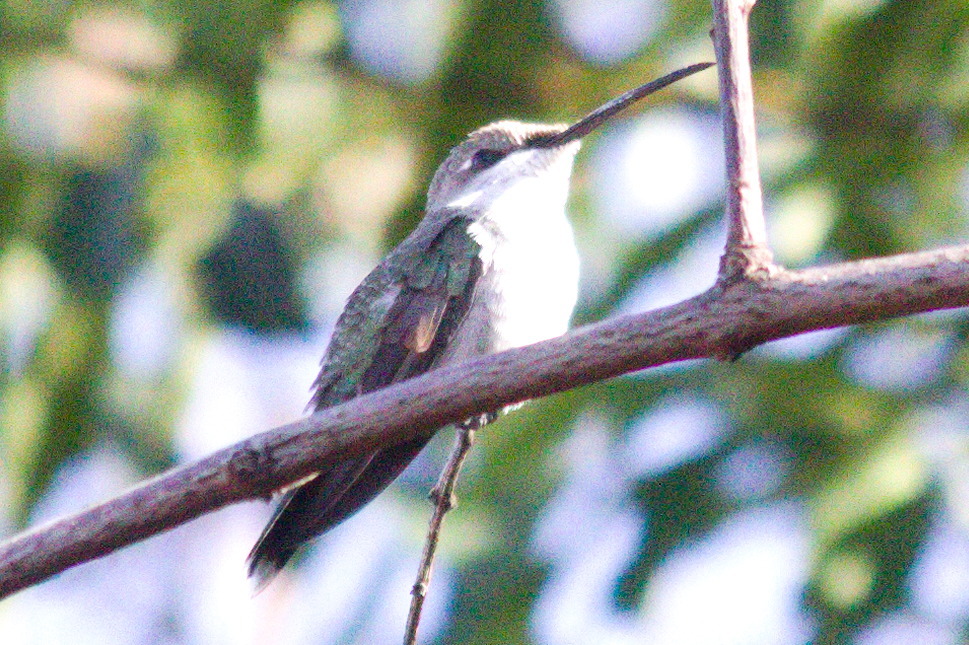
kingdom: Animalia
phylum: Chordata
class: Aves
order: Apodiformes
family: Trochilidae
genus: Heliomaster
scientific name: Heliomaster furcifer
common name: Blue-tufted starthroat
